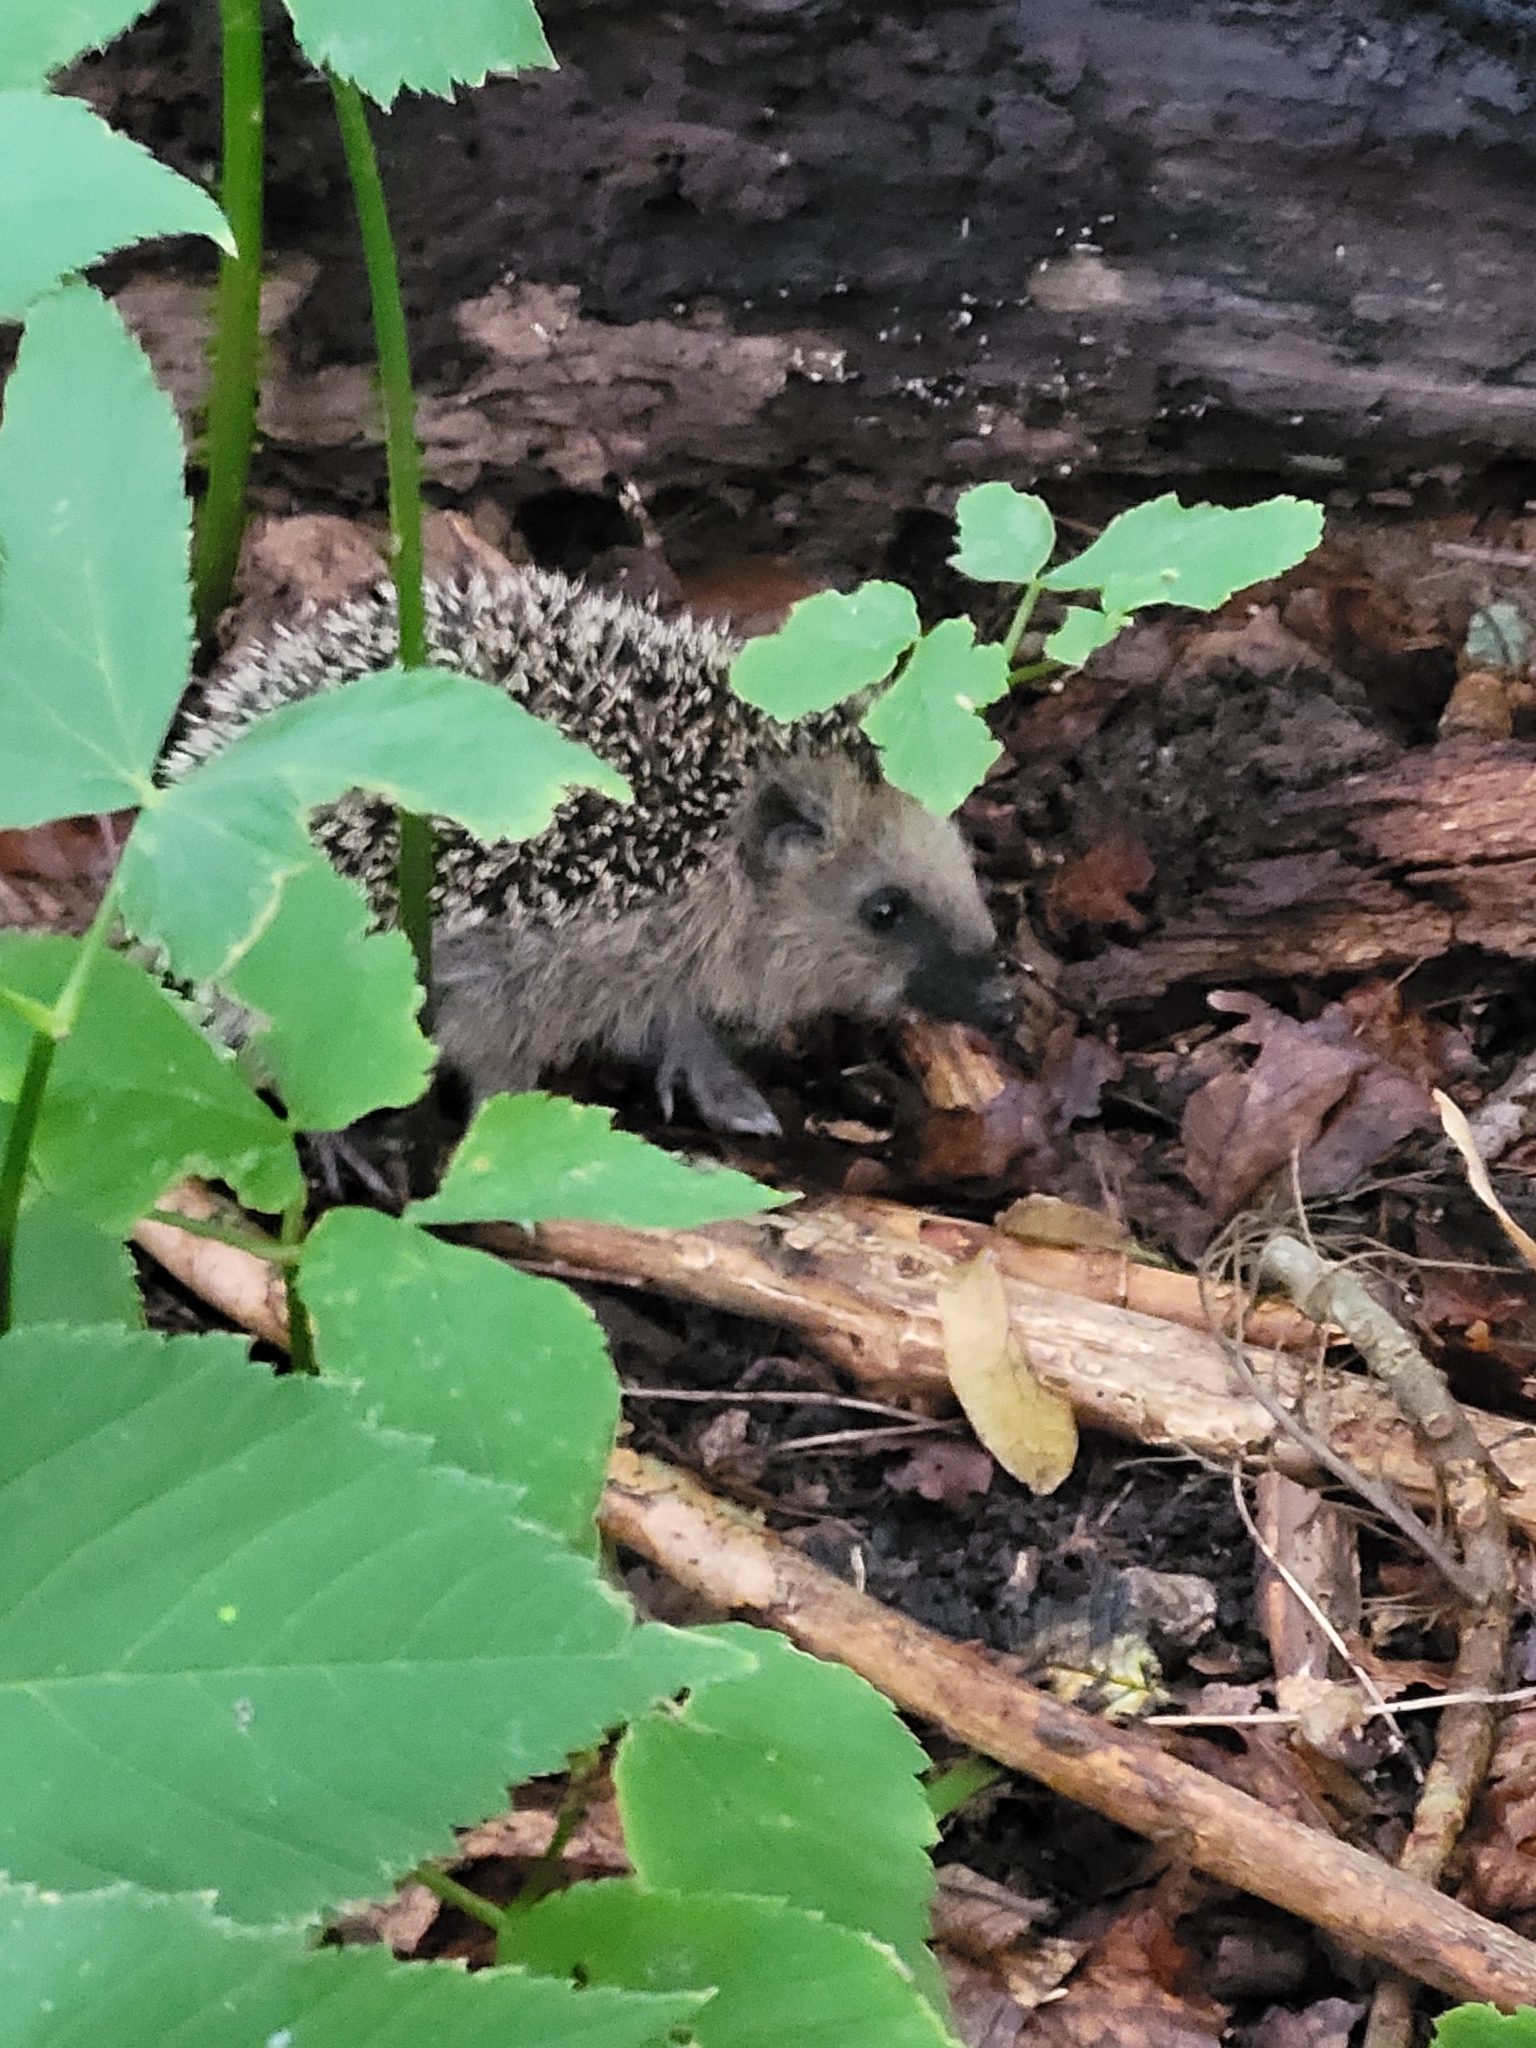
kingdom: Animalia
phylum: Chordata
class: Mammalia
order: Erinaceomorpha
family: Erinaceidae
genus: Erinaceus
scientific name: Erinaceus europaeus
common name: West european hedgehog
